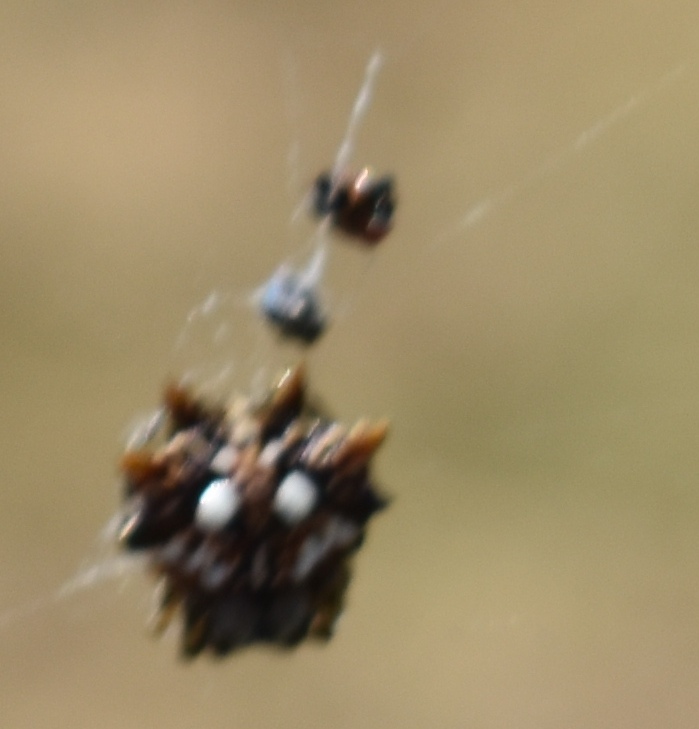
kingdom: Animalia
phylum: Arthropoda
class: Arachnida
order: Araneae
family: Araneidae
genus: Thelacantha
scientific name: Thelacantha brevispina
